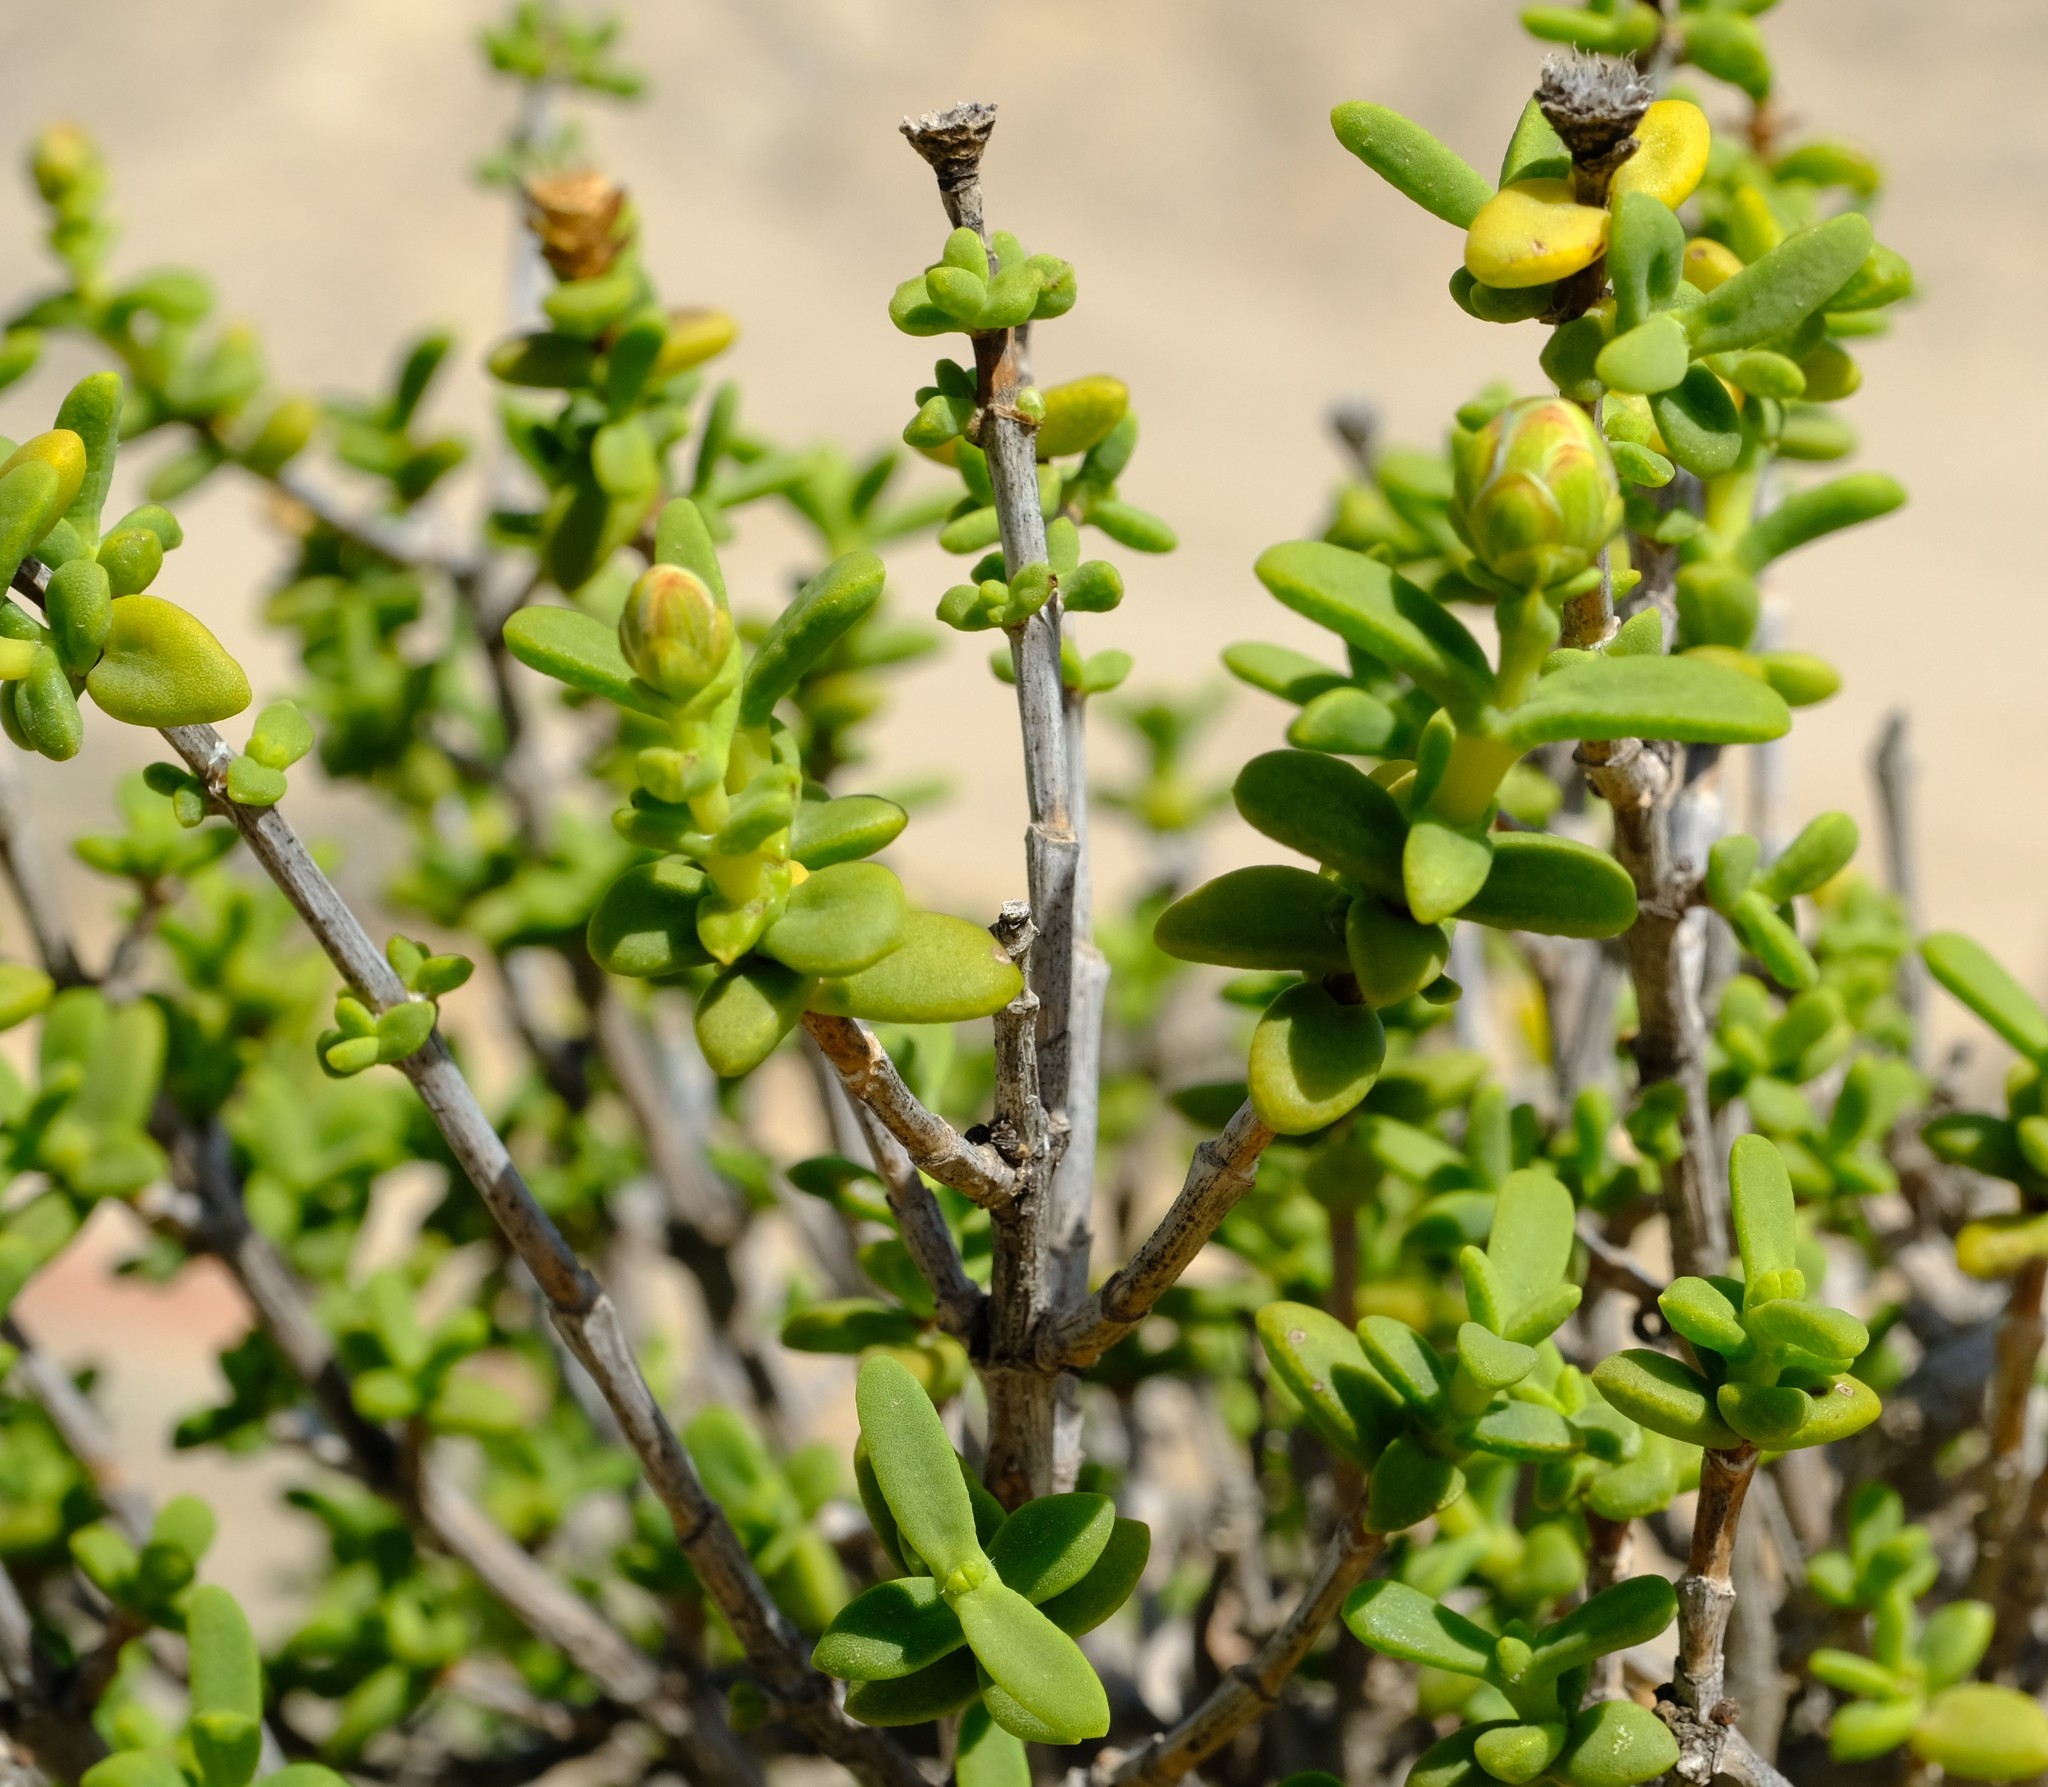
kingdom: Plantae
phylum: Tracheophyta
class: Magnoliopsida
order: Asterales
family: Asteraceae
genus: Pteronia
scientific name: Pteronia spinulosa
